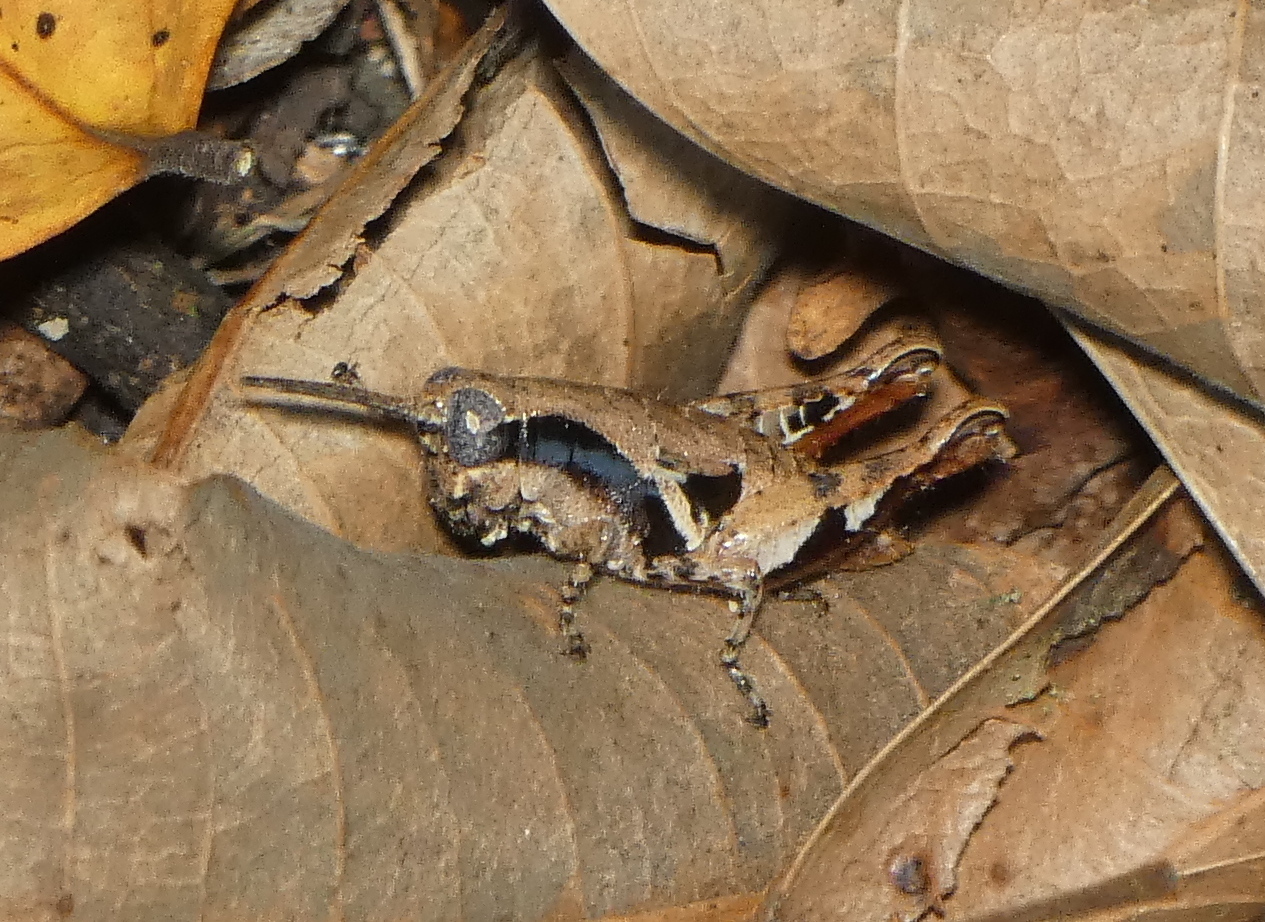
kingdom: Animalia
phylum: Arthropoda
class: Insecta
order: Orthoptera
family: Acrididae
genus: Eujivarus
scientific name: Eujivarus meridionalis
